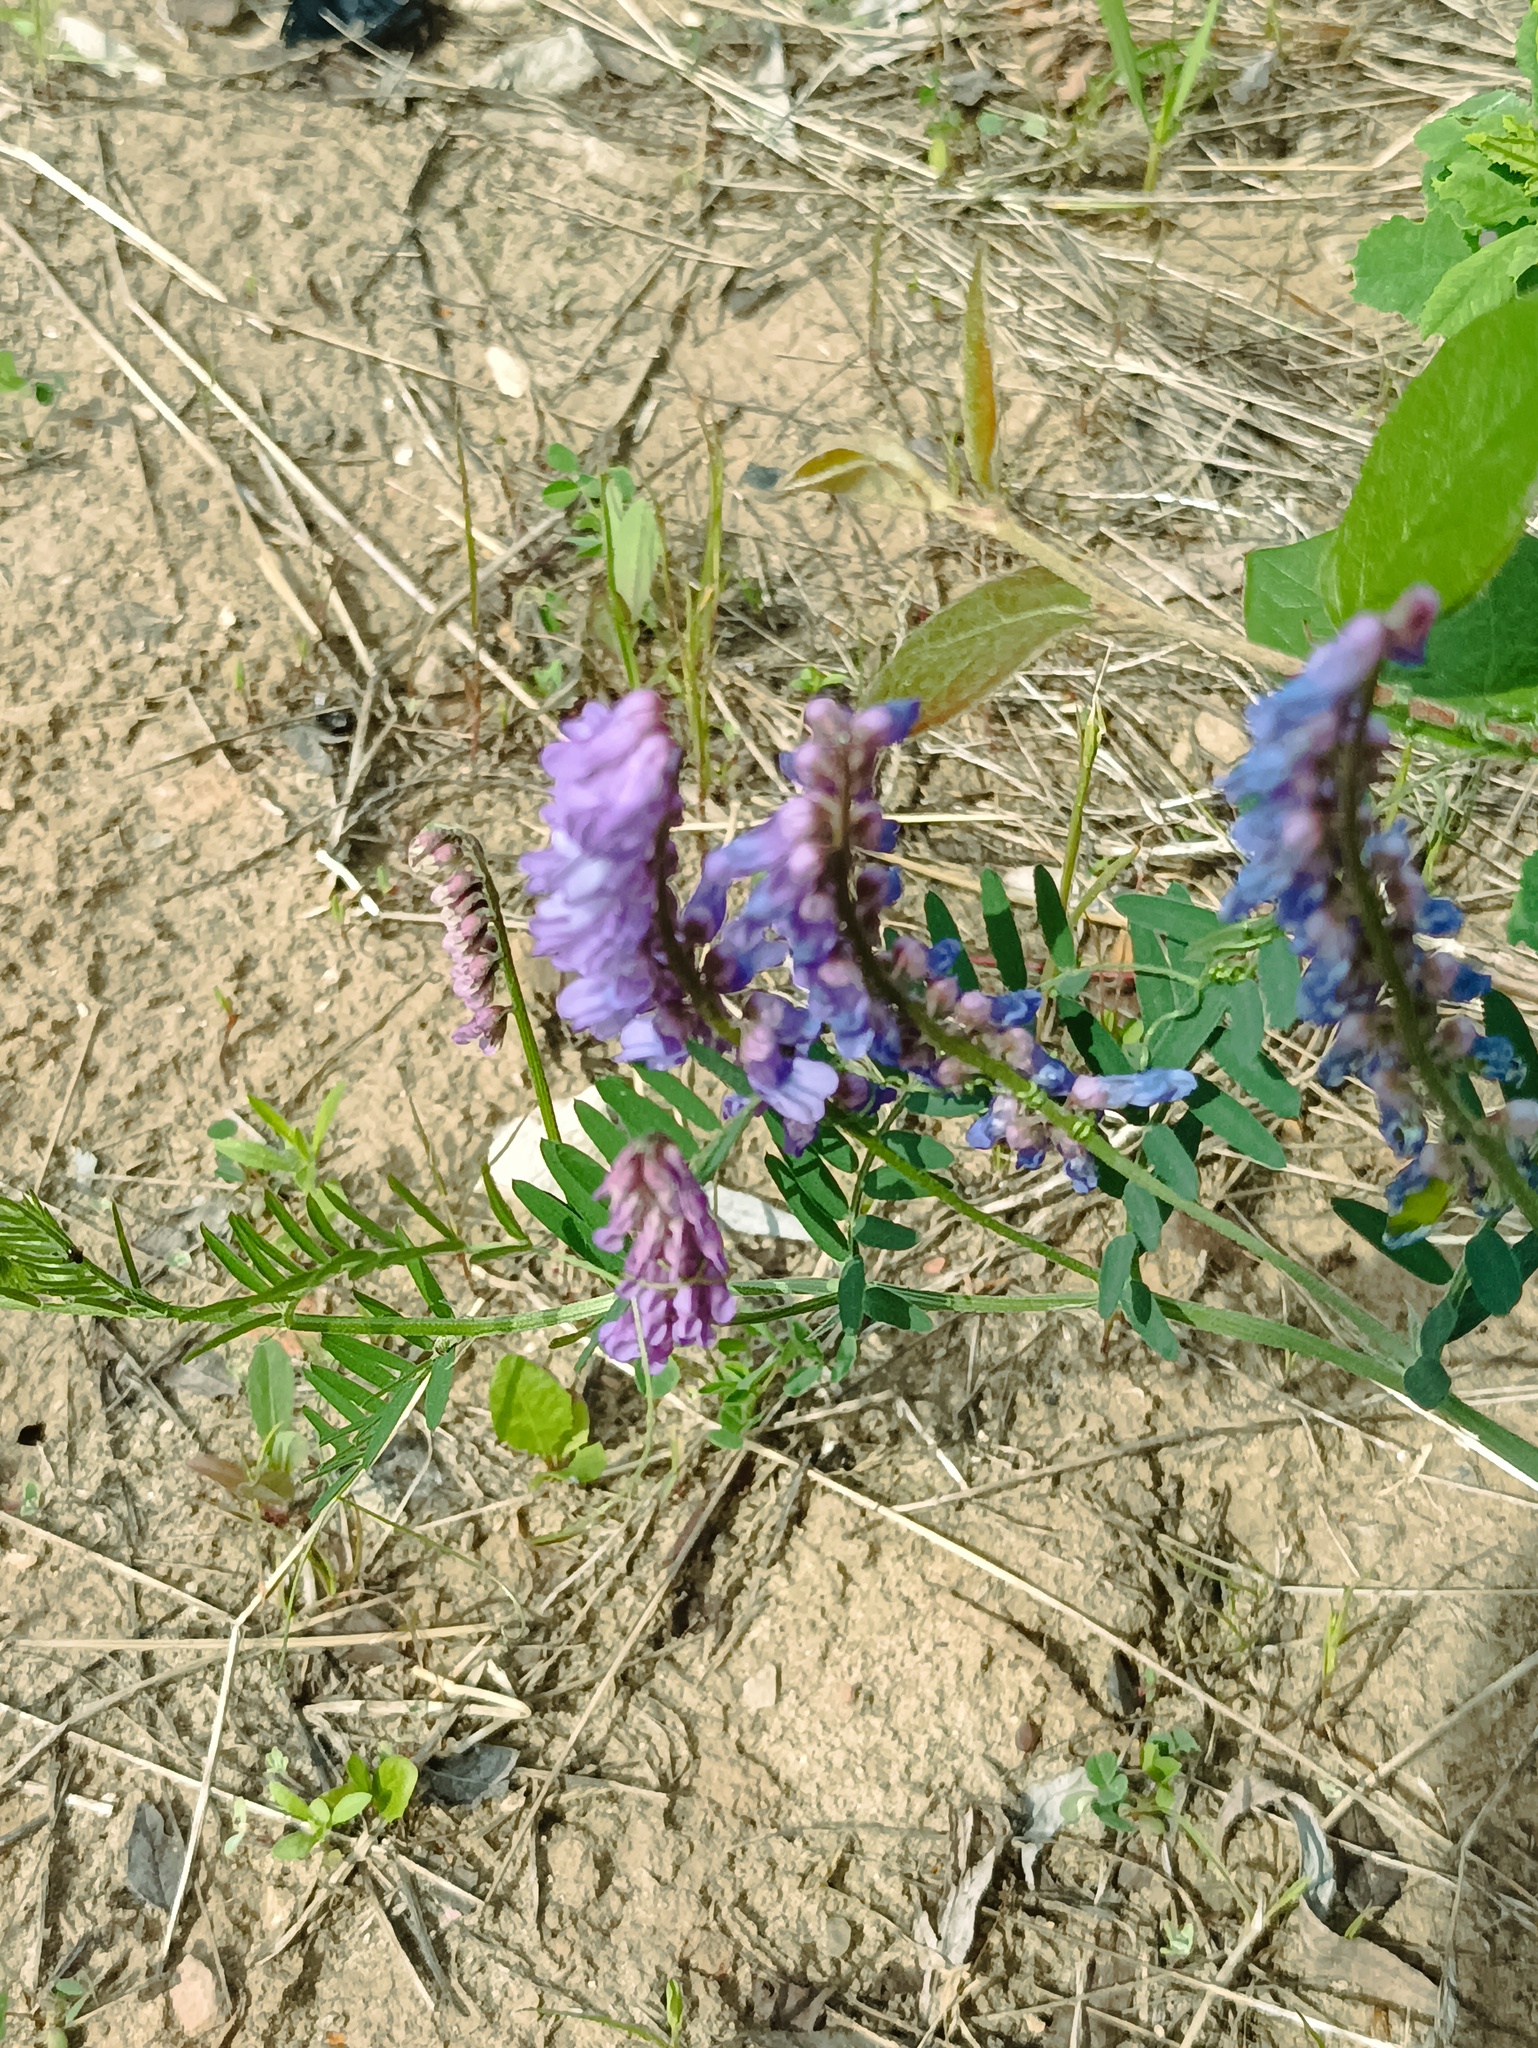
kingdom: Plantae
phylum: Tracheophyta
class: Magnoliopsida
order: Fabales
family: Fabaceae
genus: Vicia
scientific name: Vicia cracca
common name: Bird vetch
